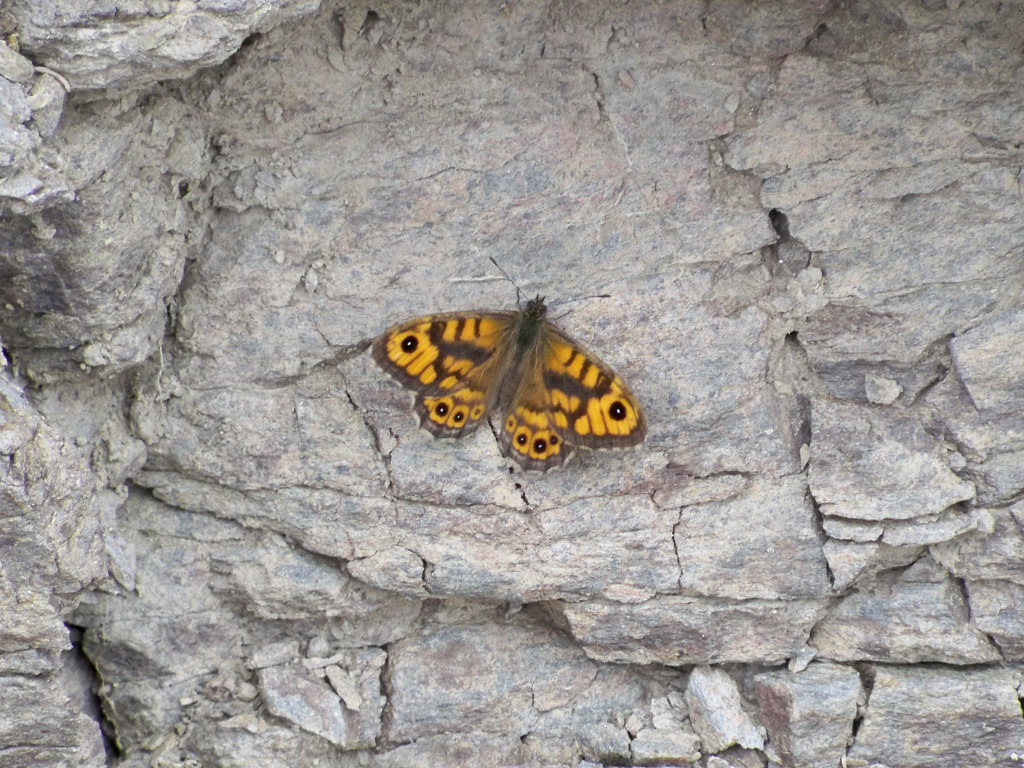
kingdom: Animalia
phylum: Arthropoda
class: Insecta
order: Lepidoptera
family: Nymphalidae
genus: Pararge
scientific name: Pararge Lasiommata megera
